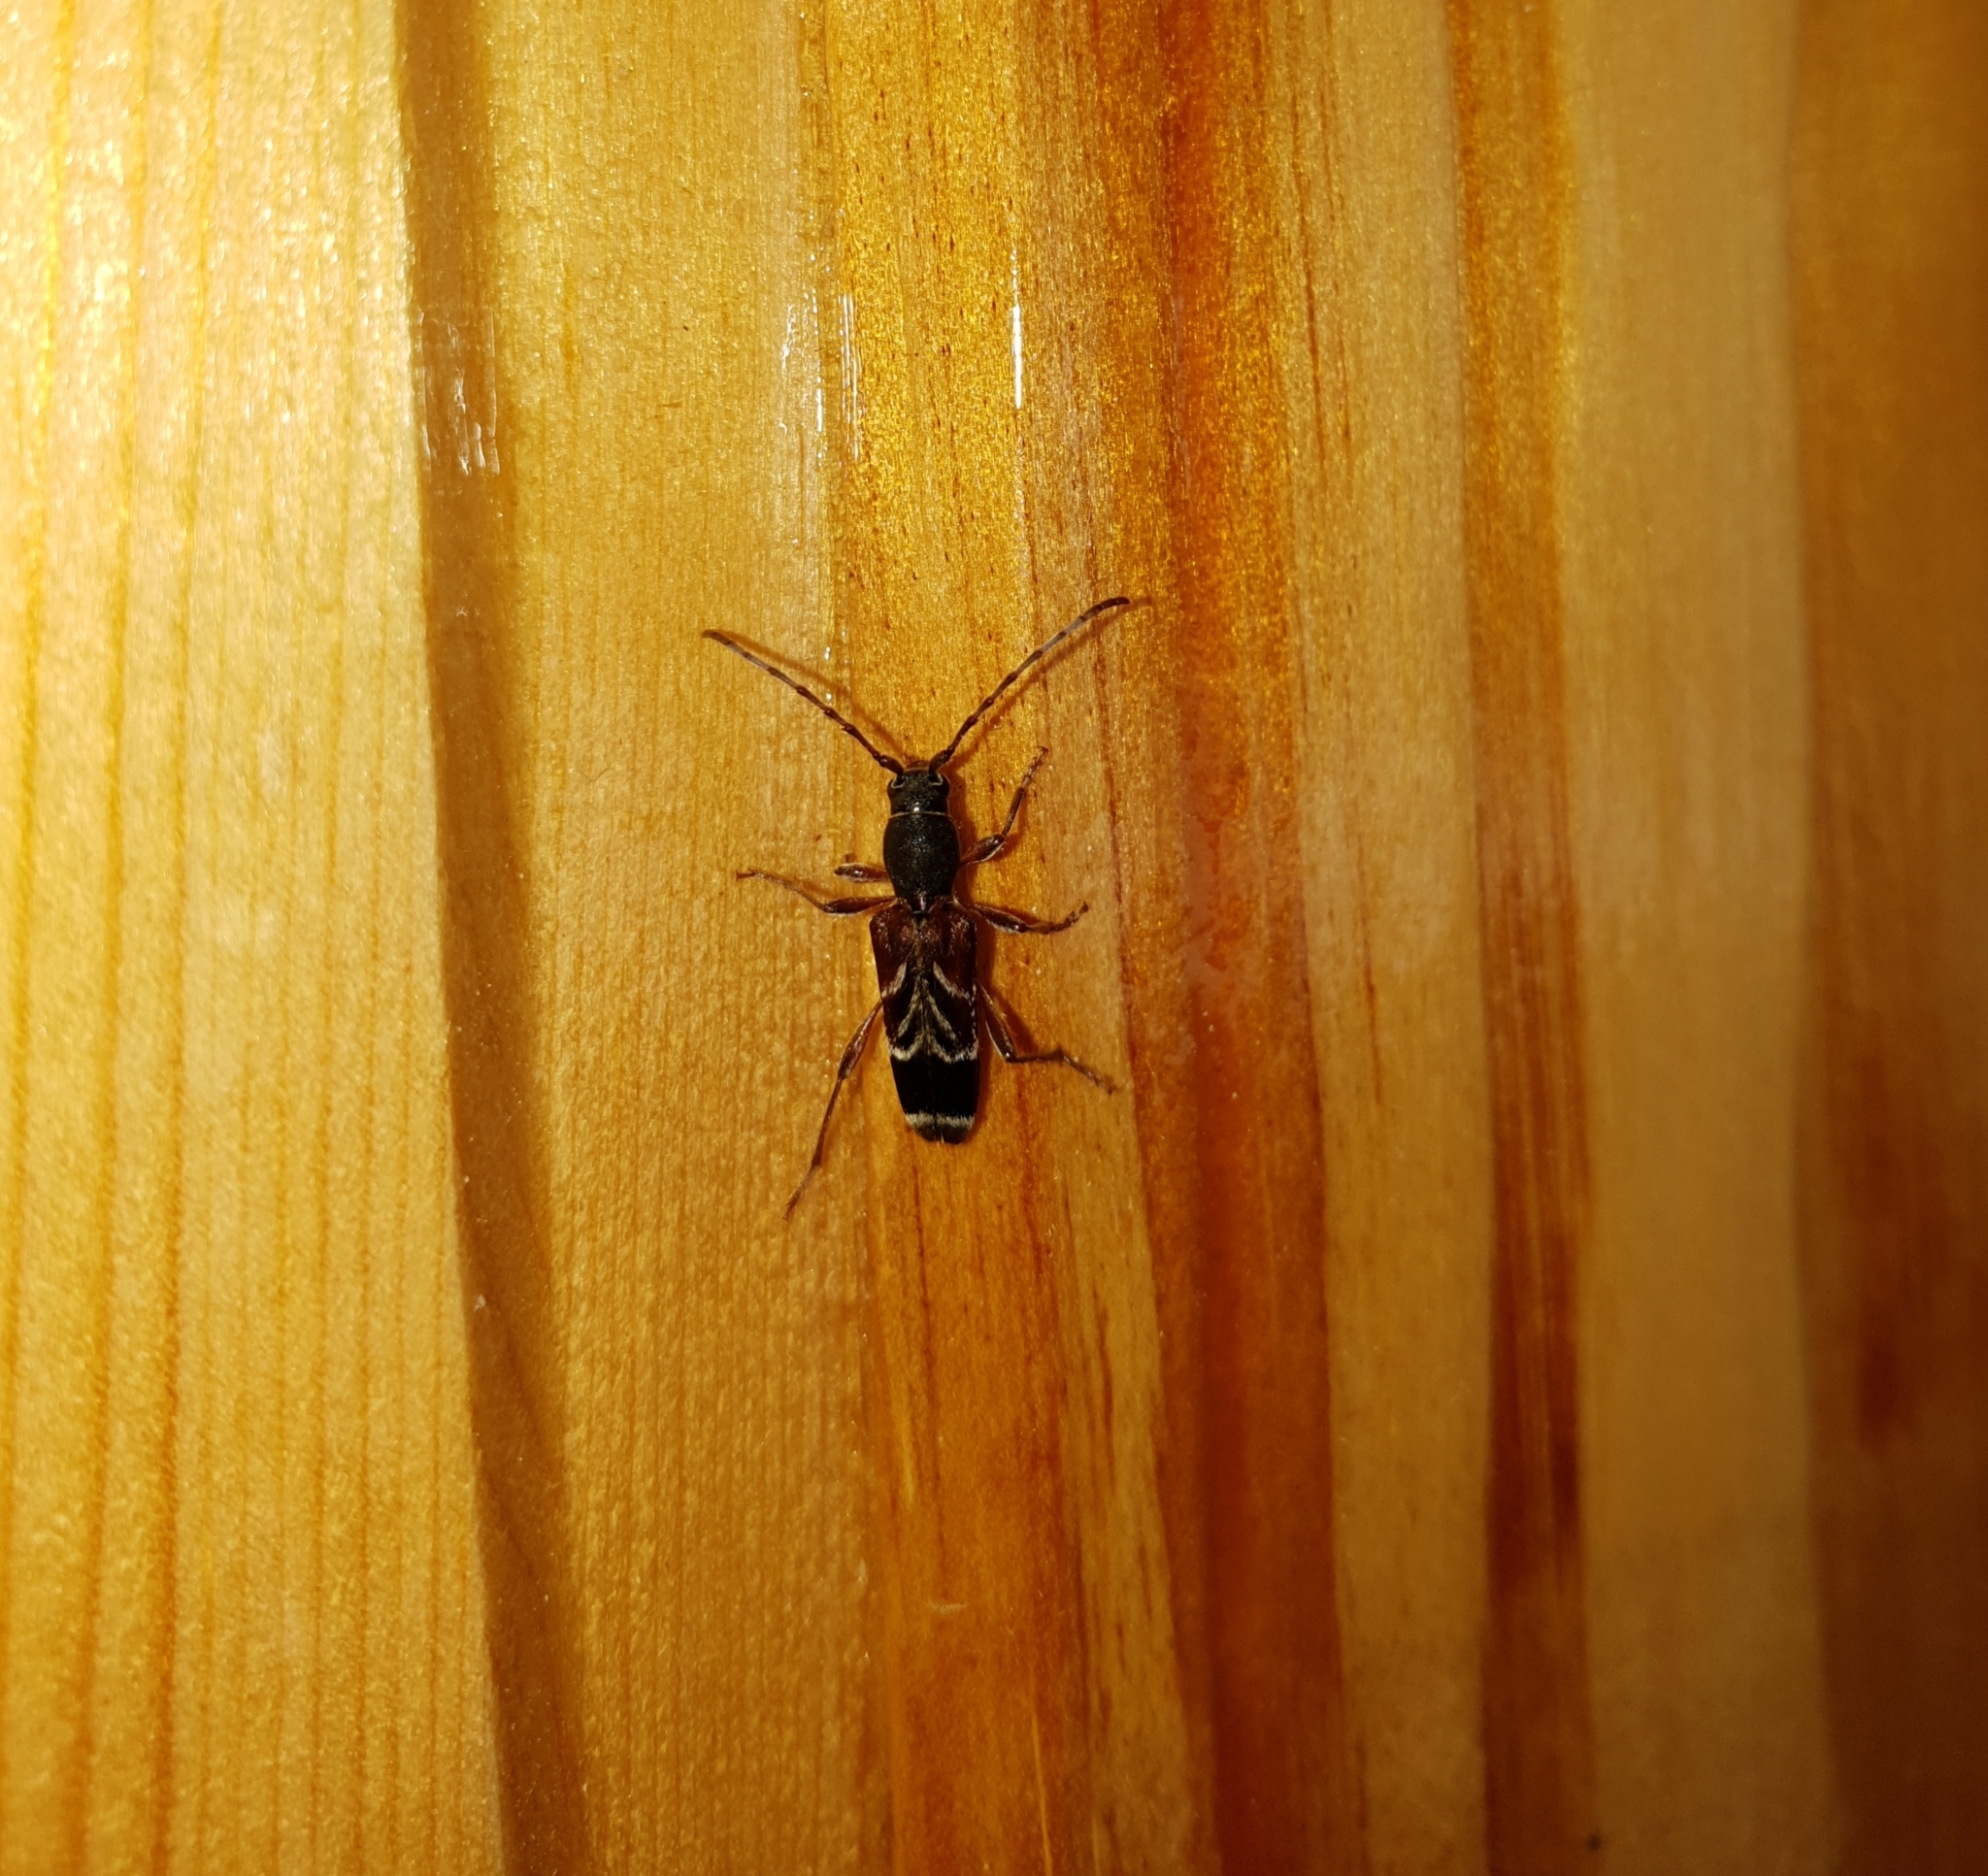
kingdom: Animalia
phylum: Arthropoda
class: Insecta
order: Coleoptera
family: Cerambycidae
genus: Anaglyptus
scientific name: Anaglyptus danilevskii
